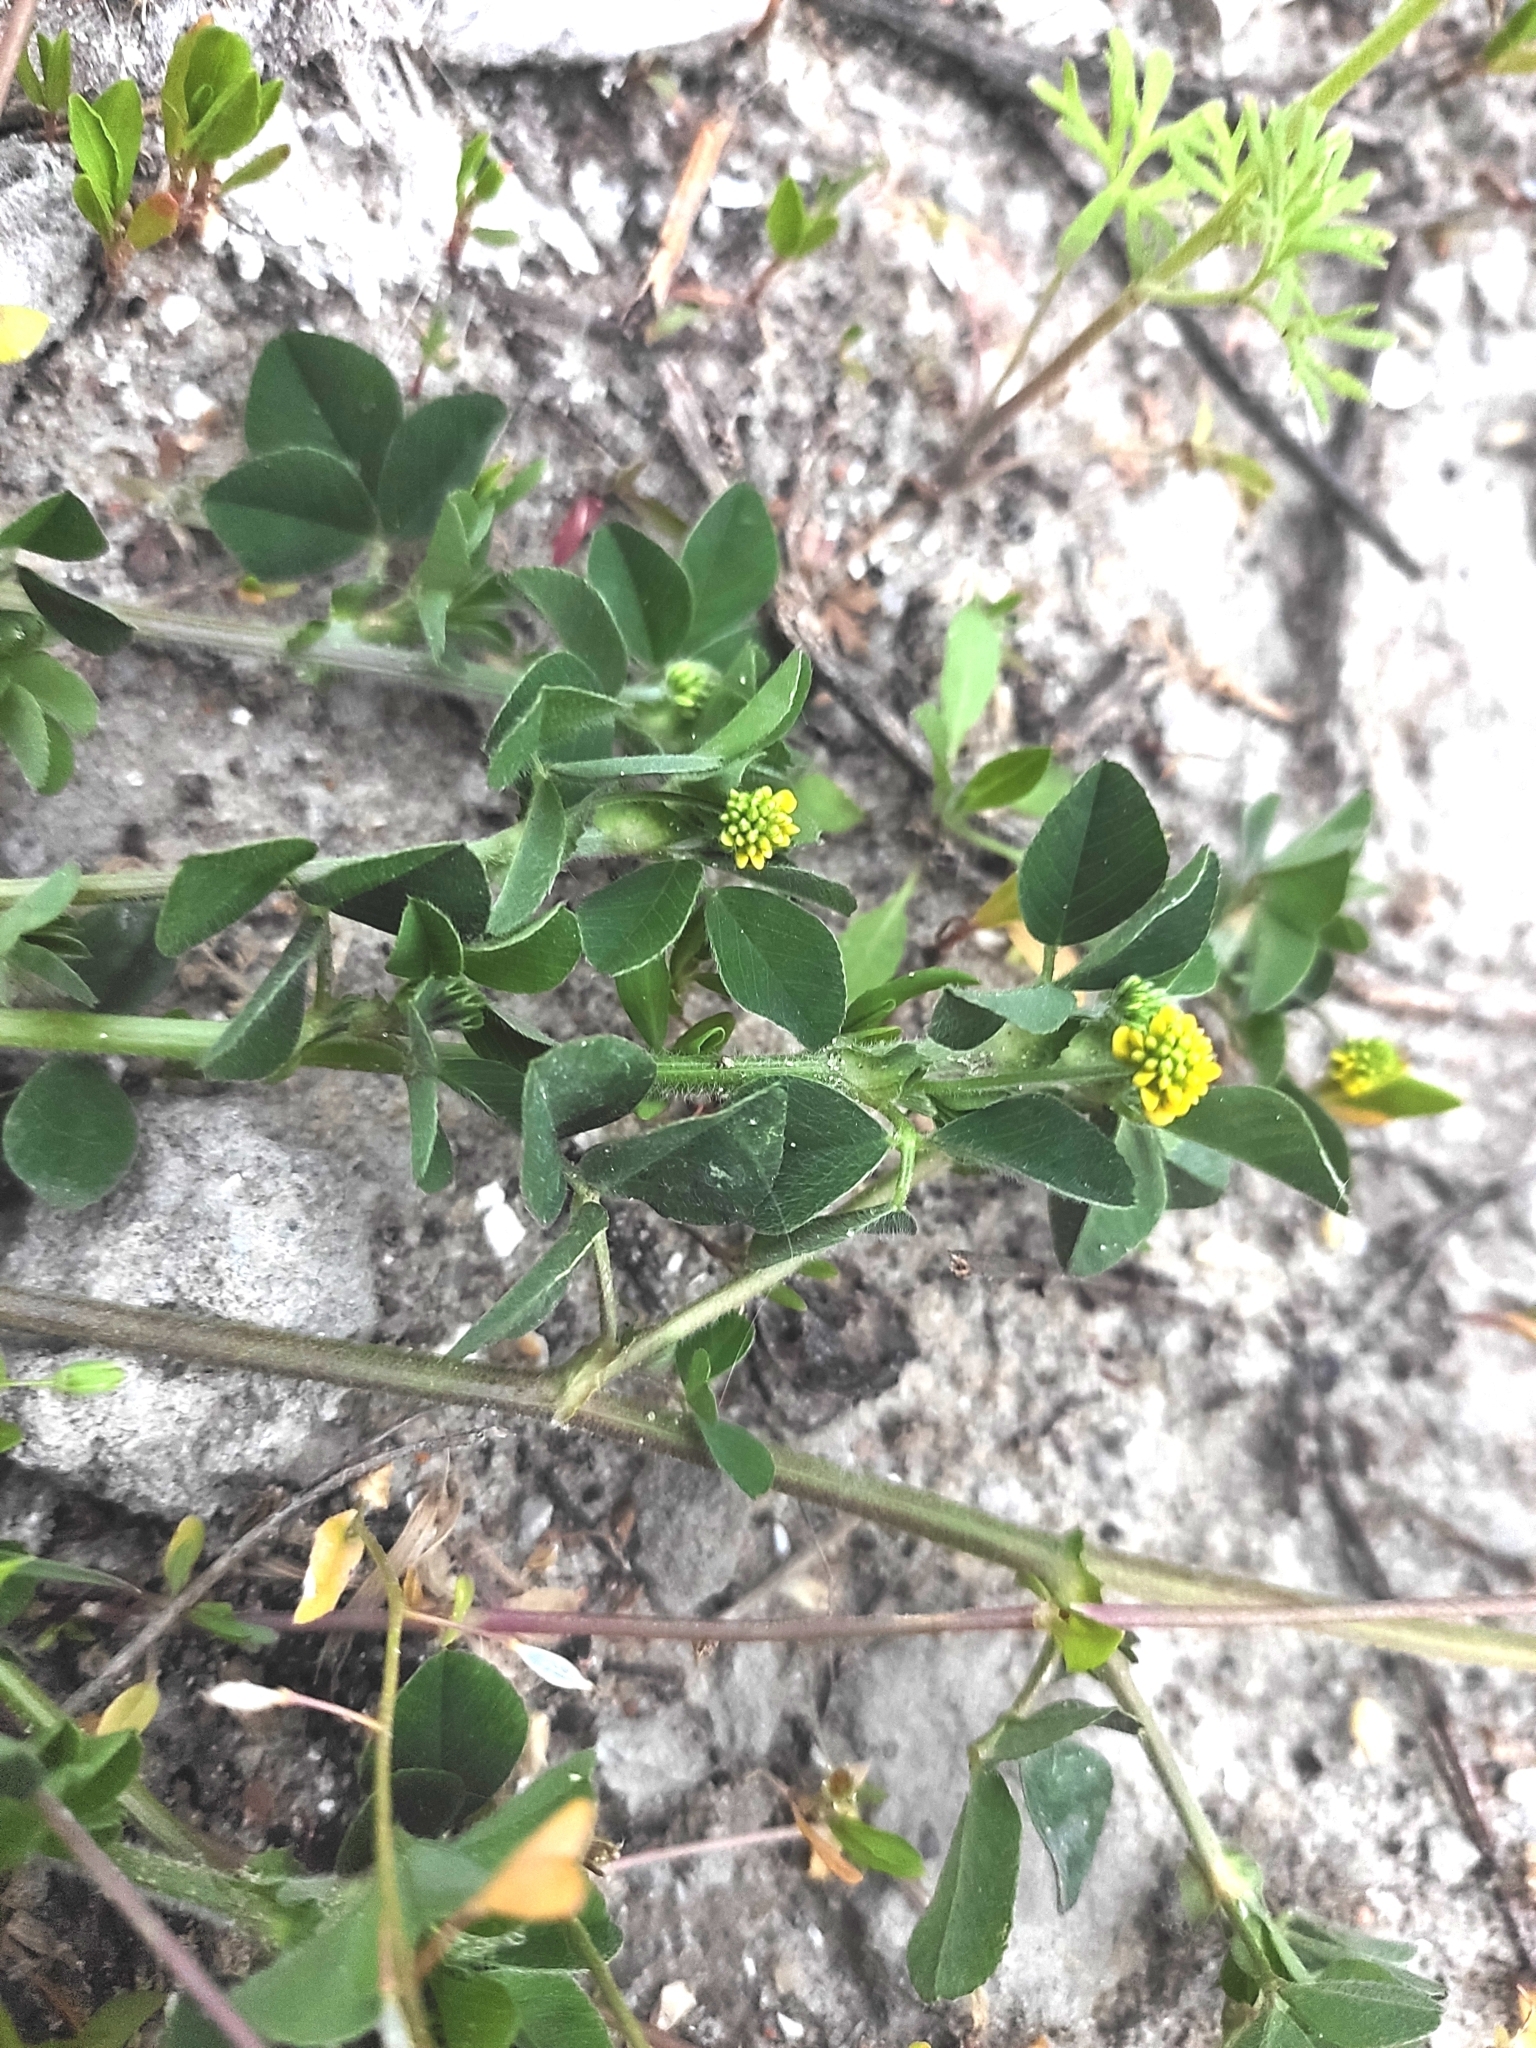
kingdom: Plantae
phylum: Tracheophyta
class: Magnoliopsida
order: Fabales
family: Fabaceae
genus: Medicago
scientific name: Medicago lupulina
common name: Black medick
